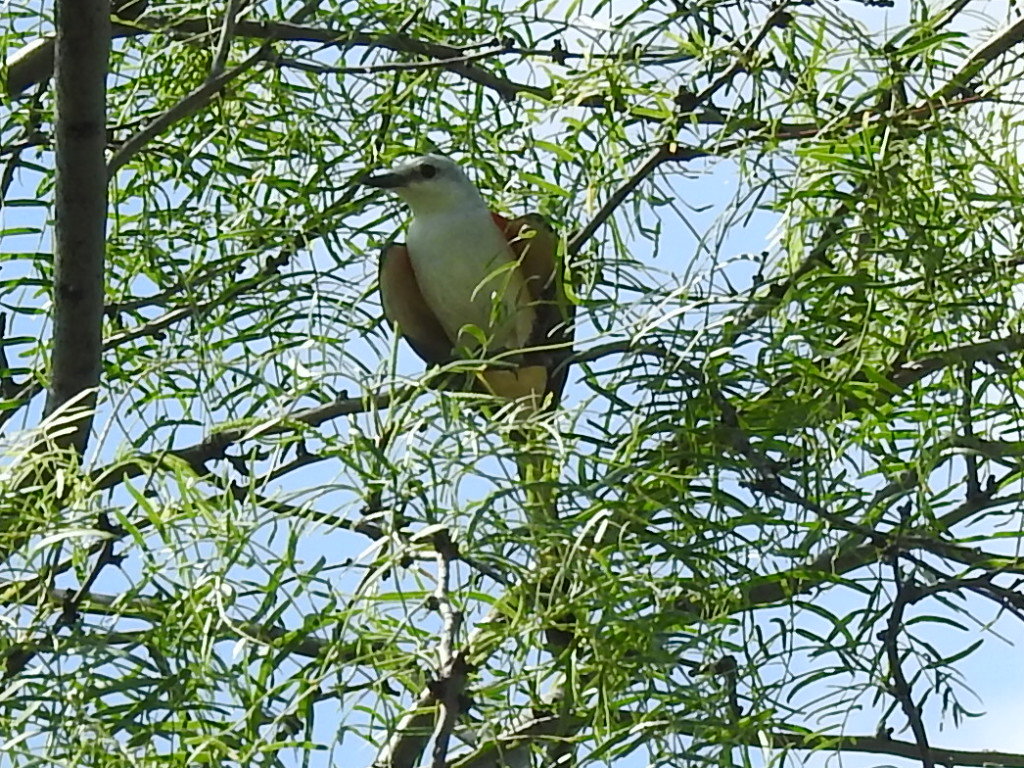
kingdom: Animalia
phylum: Chordata
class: Aves
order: Passeriformes
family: Tyrannidae
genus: Tyrannus
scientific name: Tyrannus forficatus
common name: Scissor-tailed flycatcher
